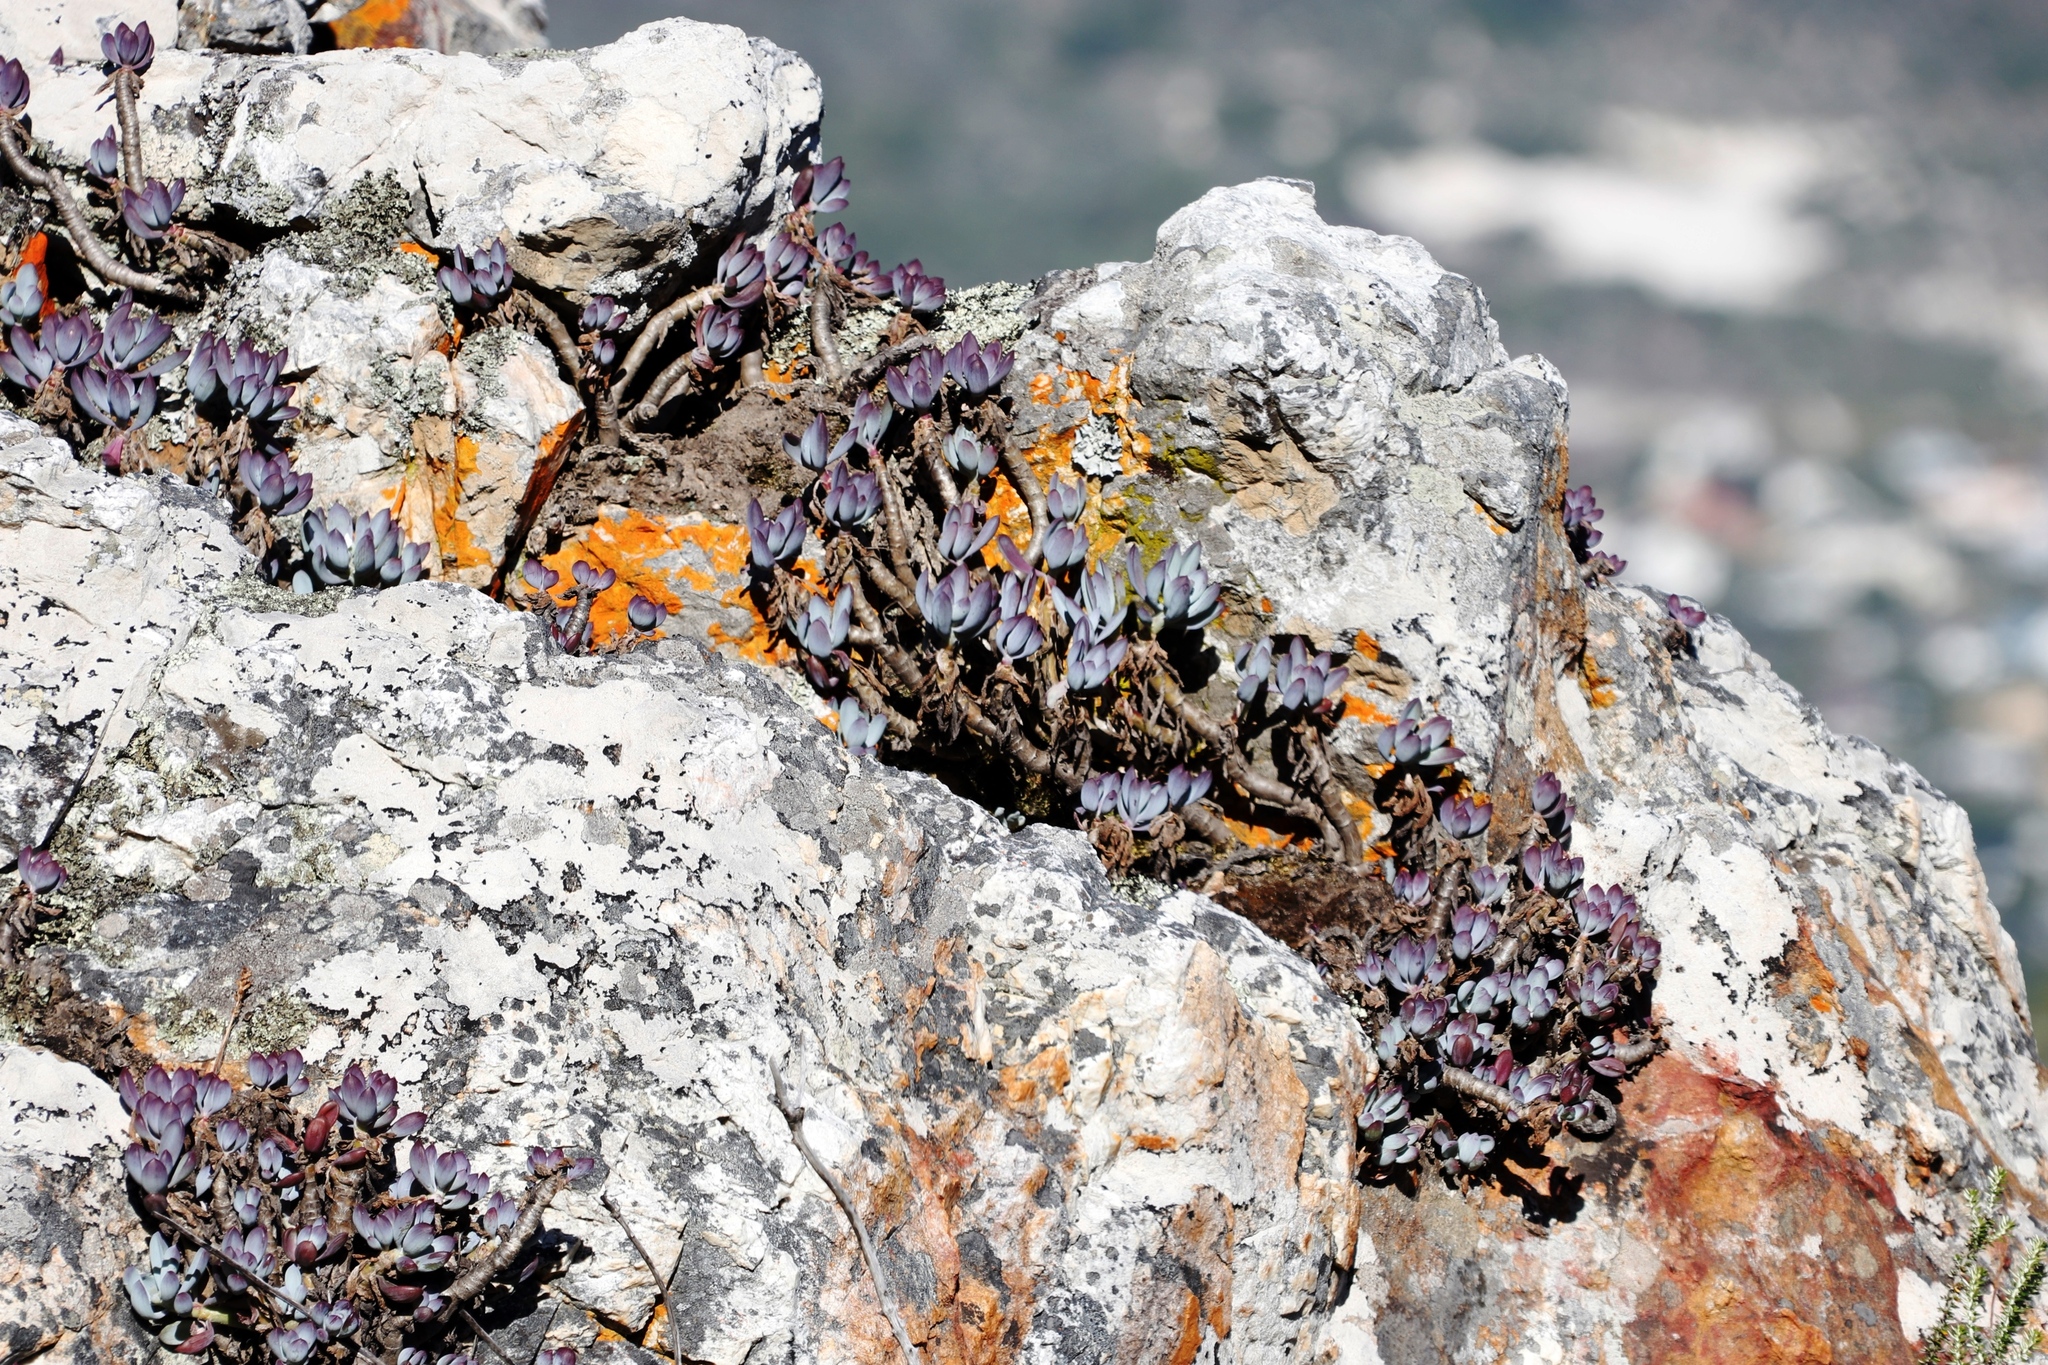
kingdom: Plantae
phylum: Tracheophyta
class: Magnoliopsida
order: Asterales
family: Asteraceae
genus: Curio
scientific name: Curio crassulifolius
